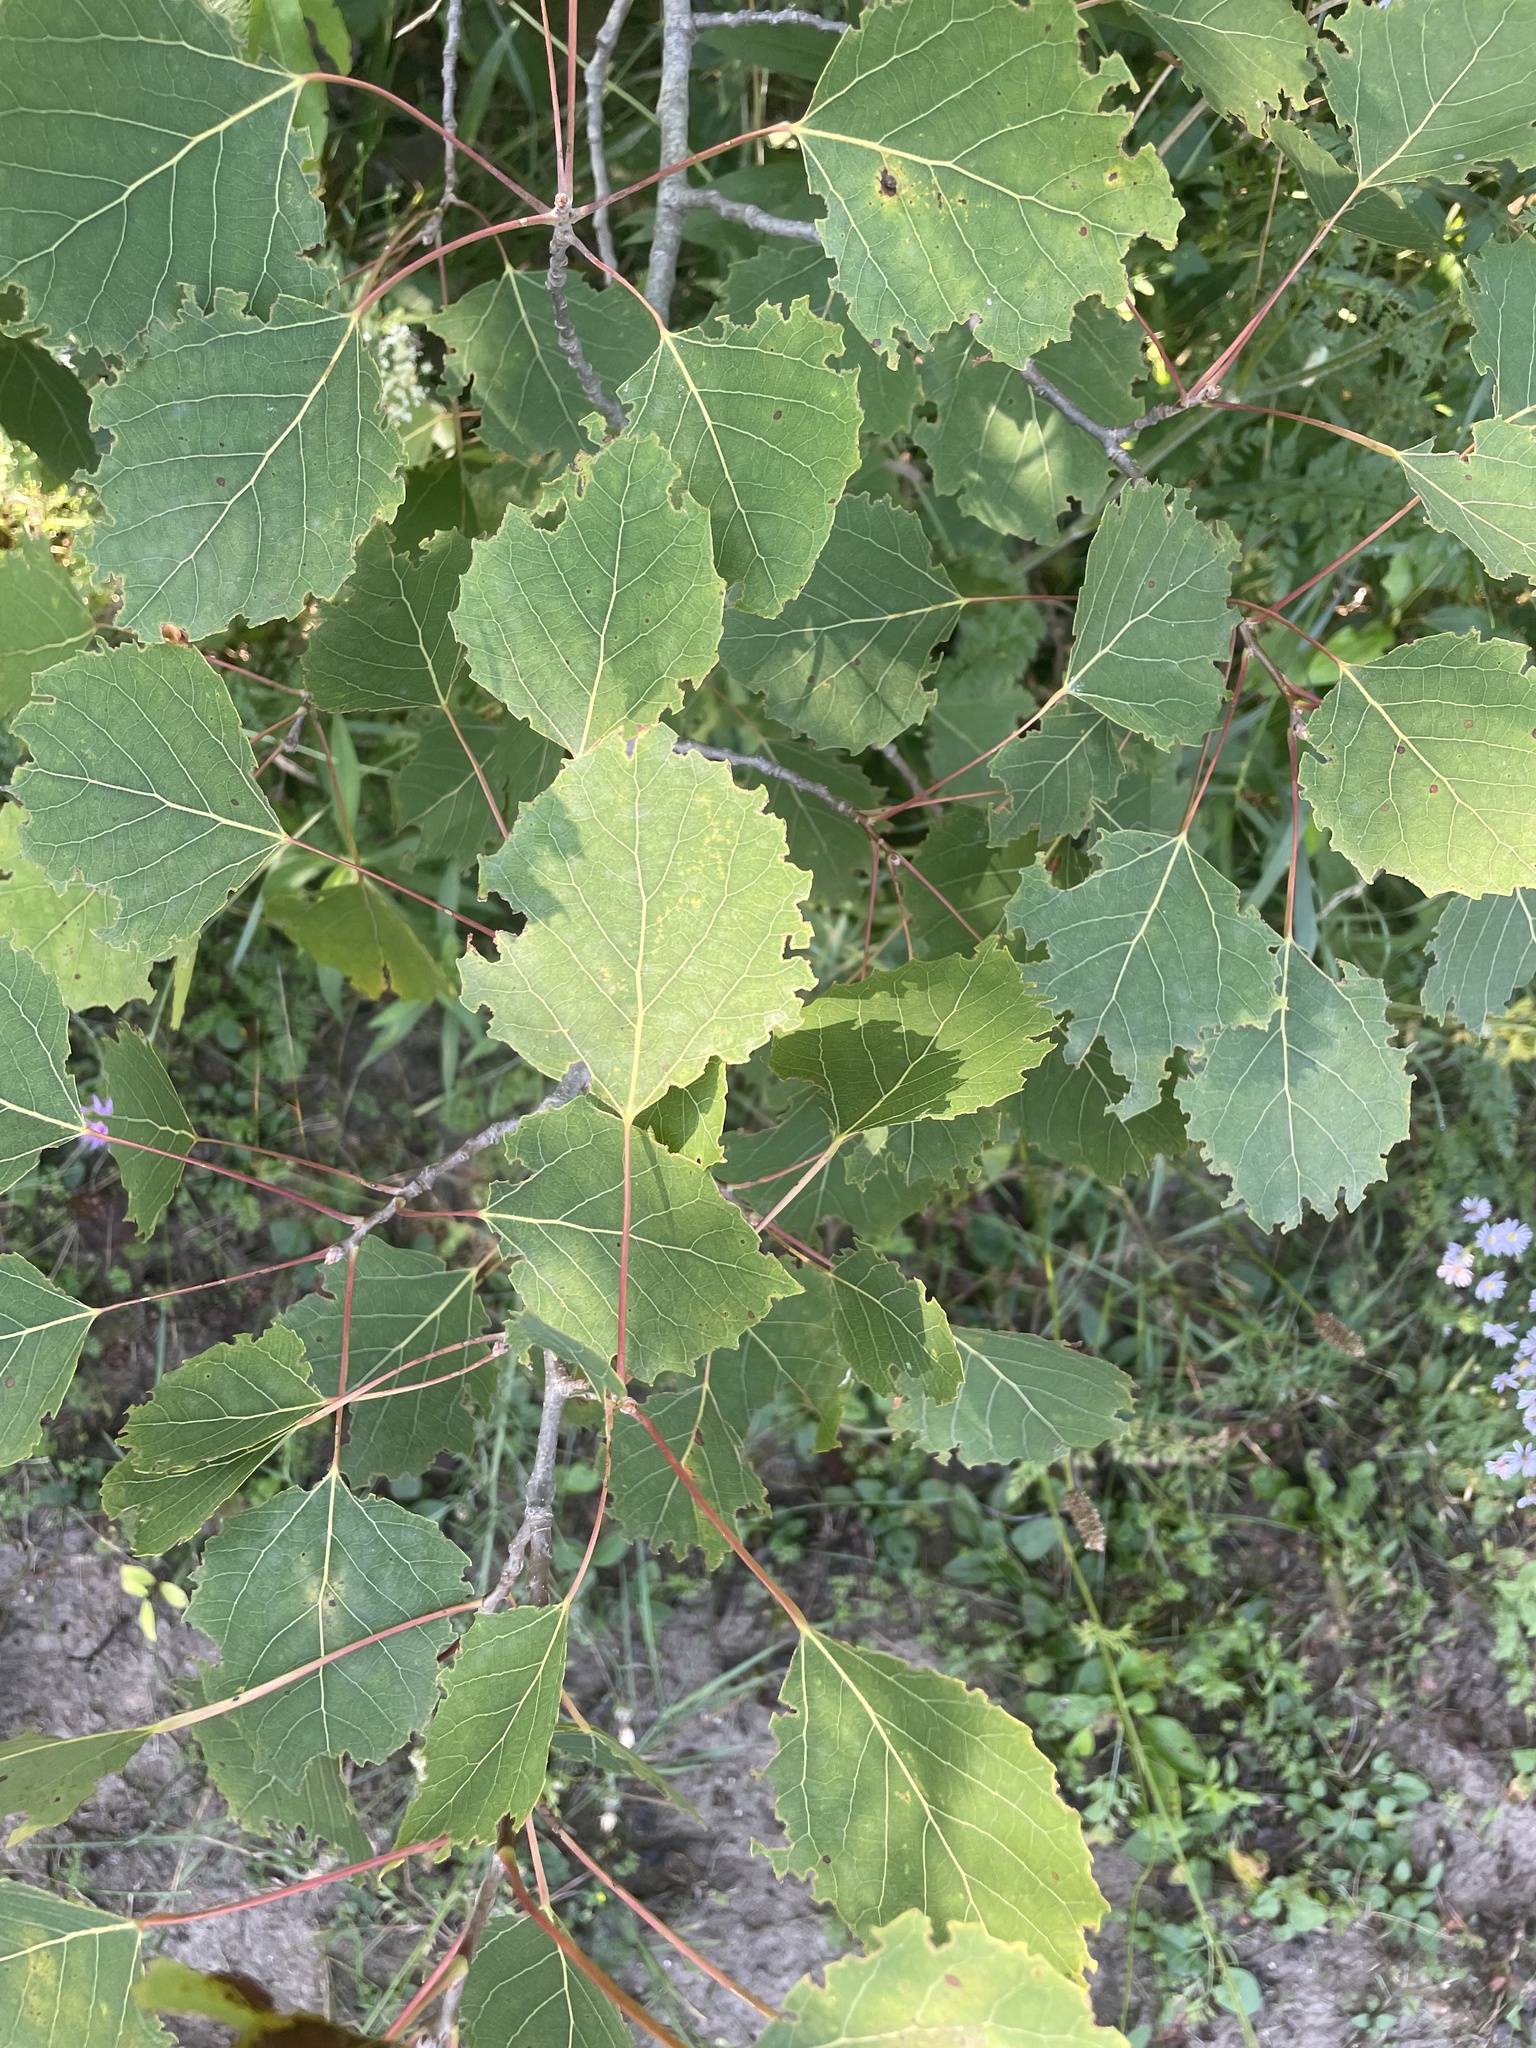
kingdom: Plantae
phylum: Tracheophyta
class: Magnoliopsida
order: Malpighiales
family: Salicaceae
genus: Populus
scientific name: Populus grandidentata
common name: Bigtooth aspen
